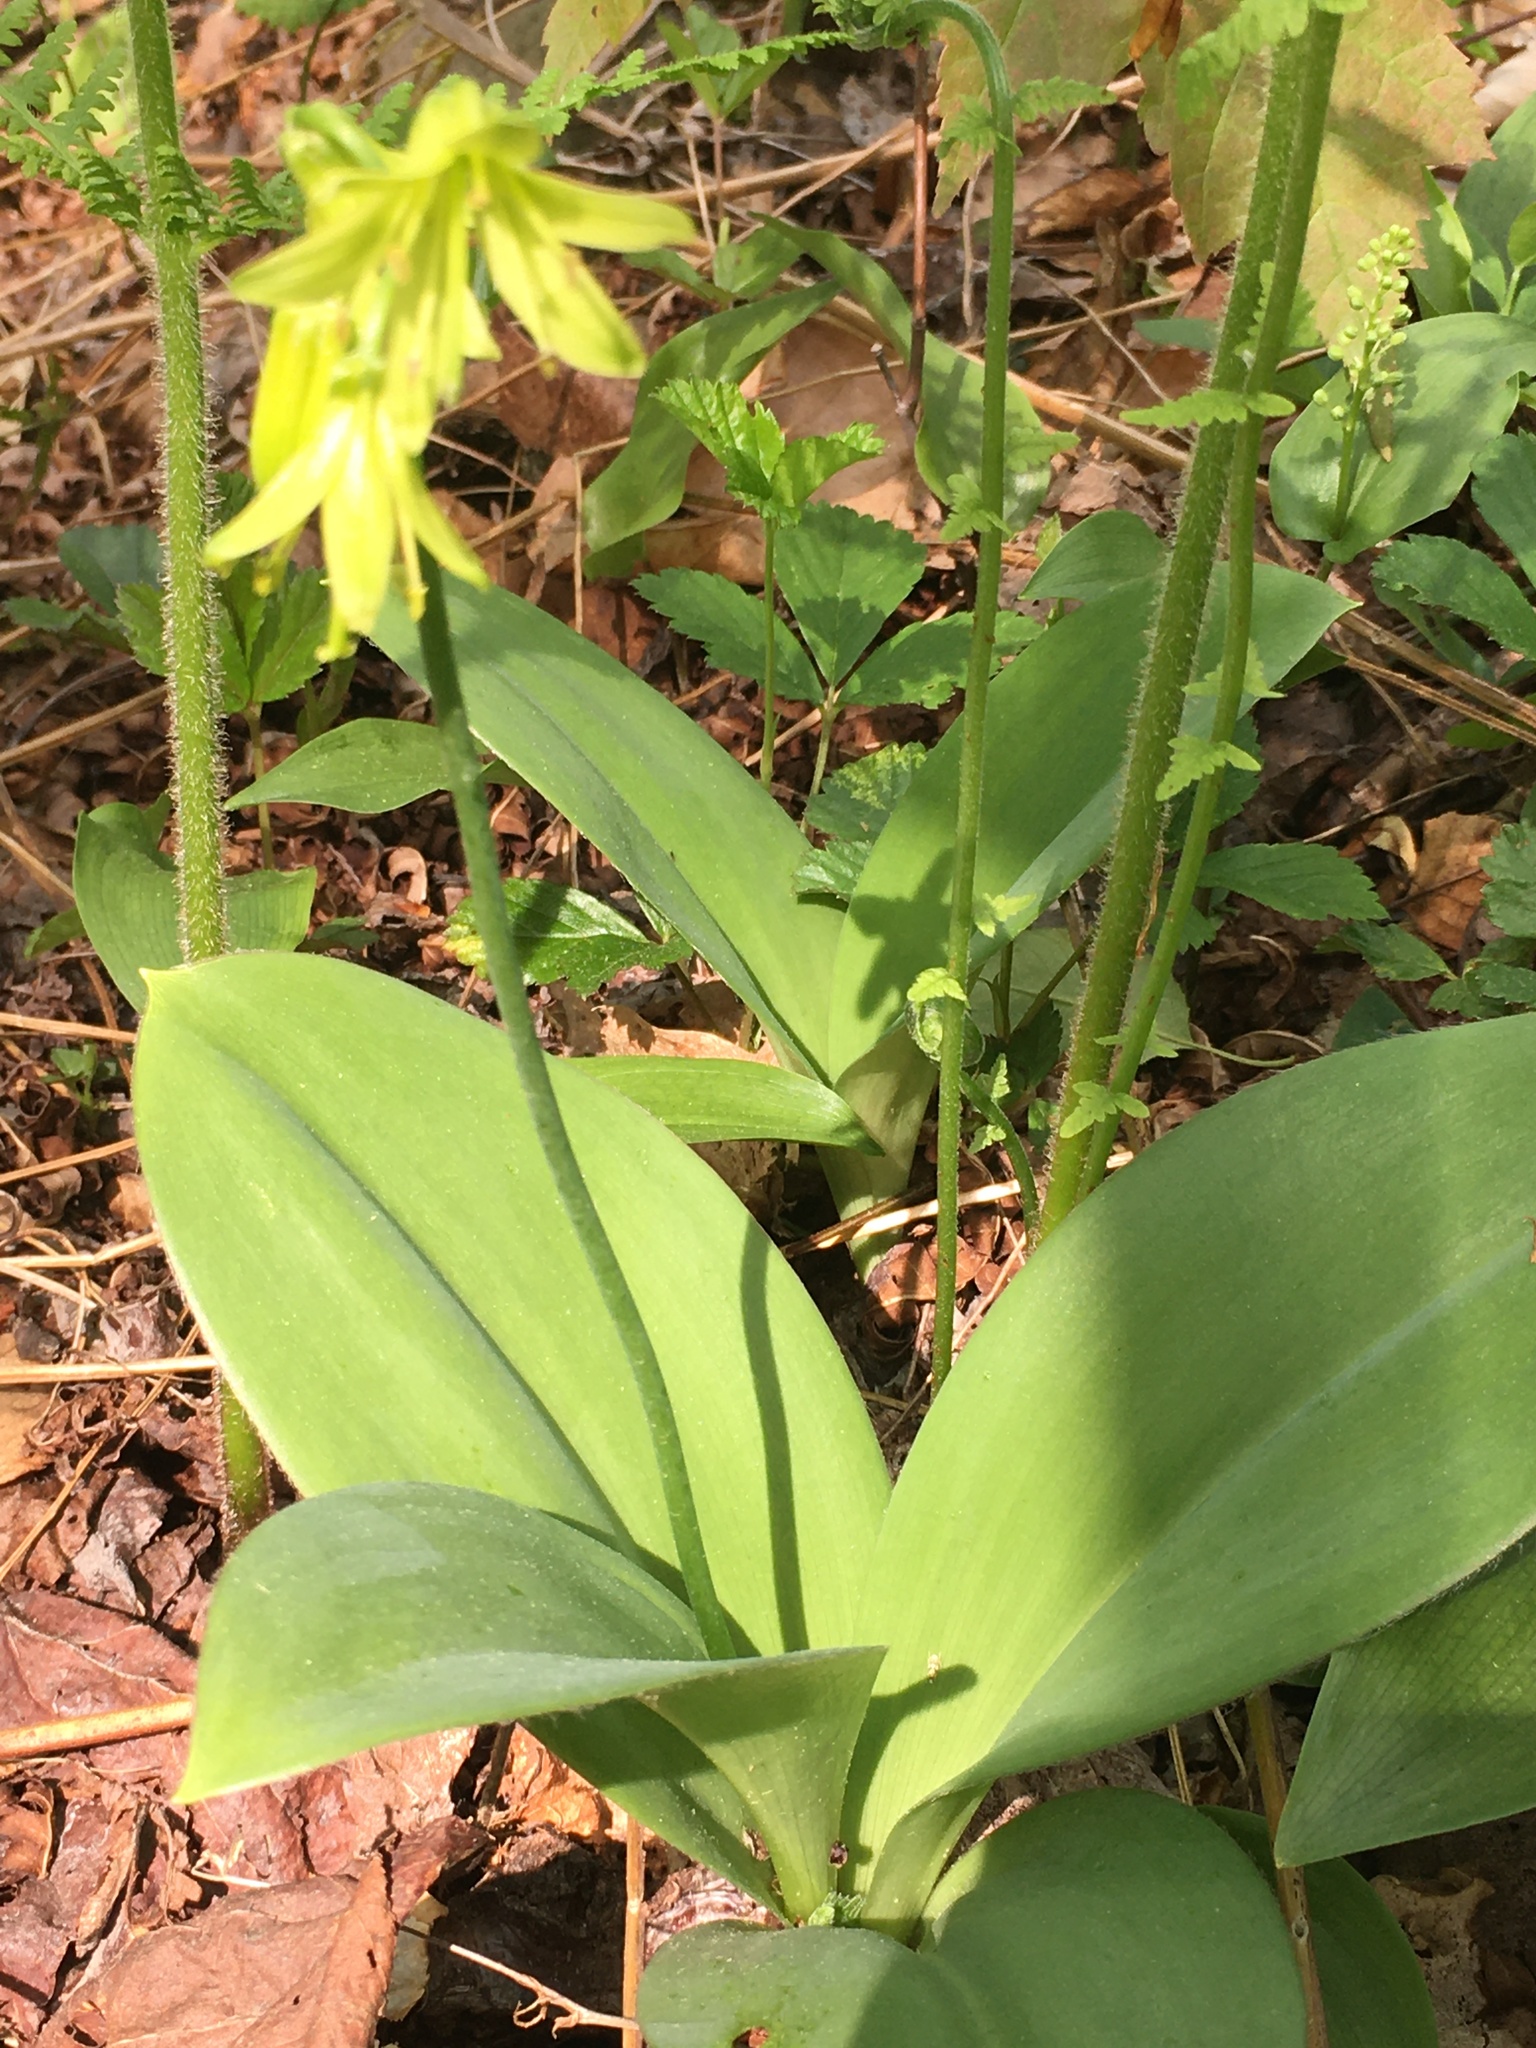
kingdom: Plantae
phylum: Tracheophyta
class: Liliopsida
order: Liliales
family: Liliaceae
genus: Clintonia
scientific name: Clintonia borealis
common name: Yellow clintonia
